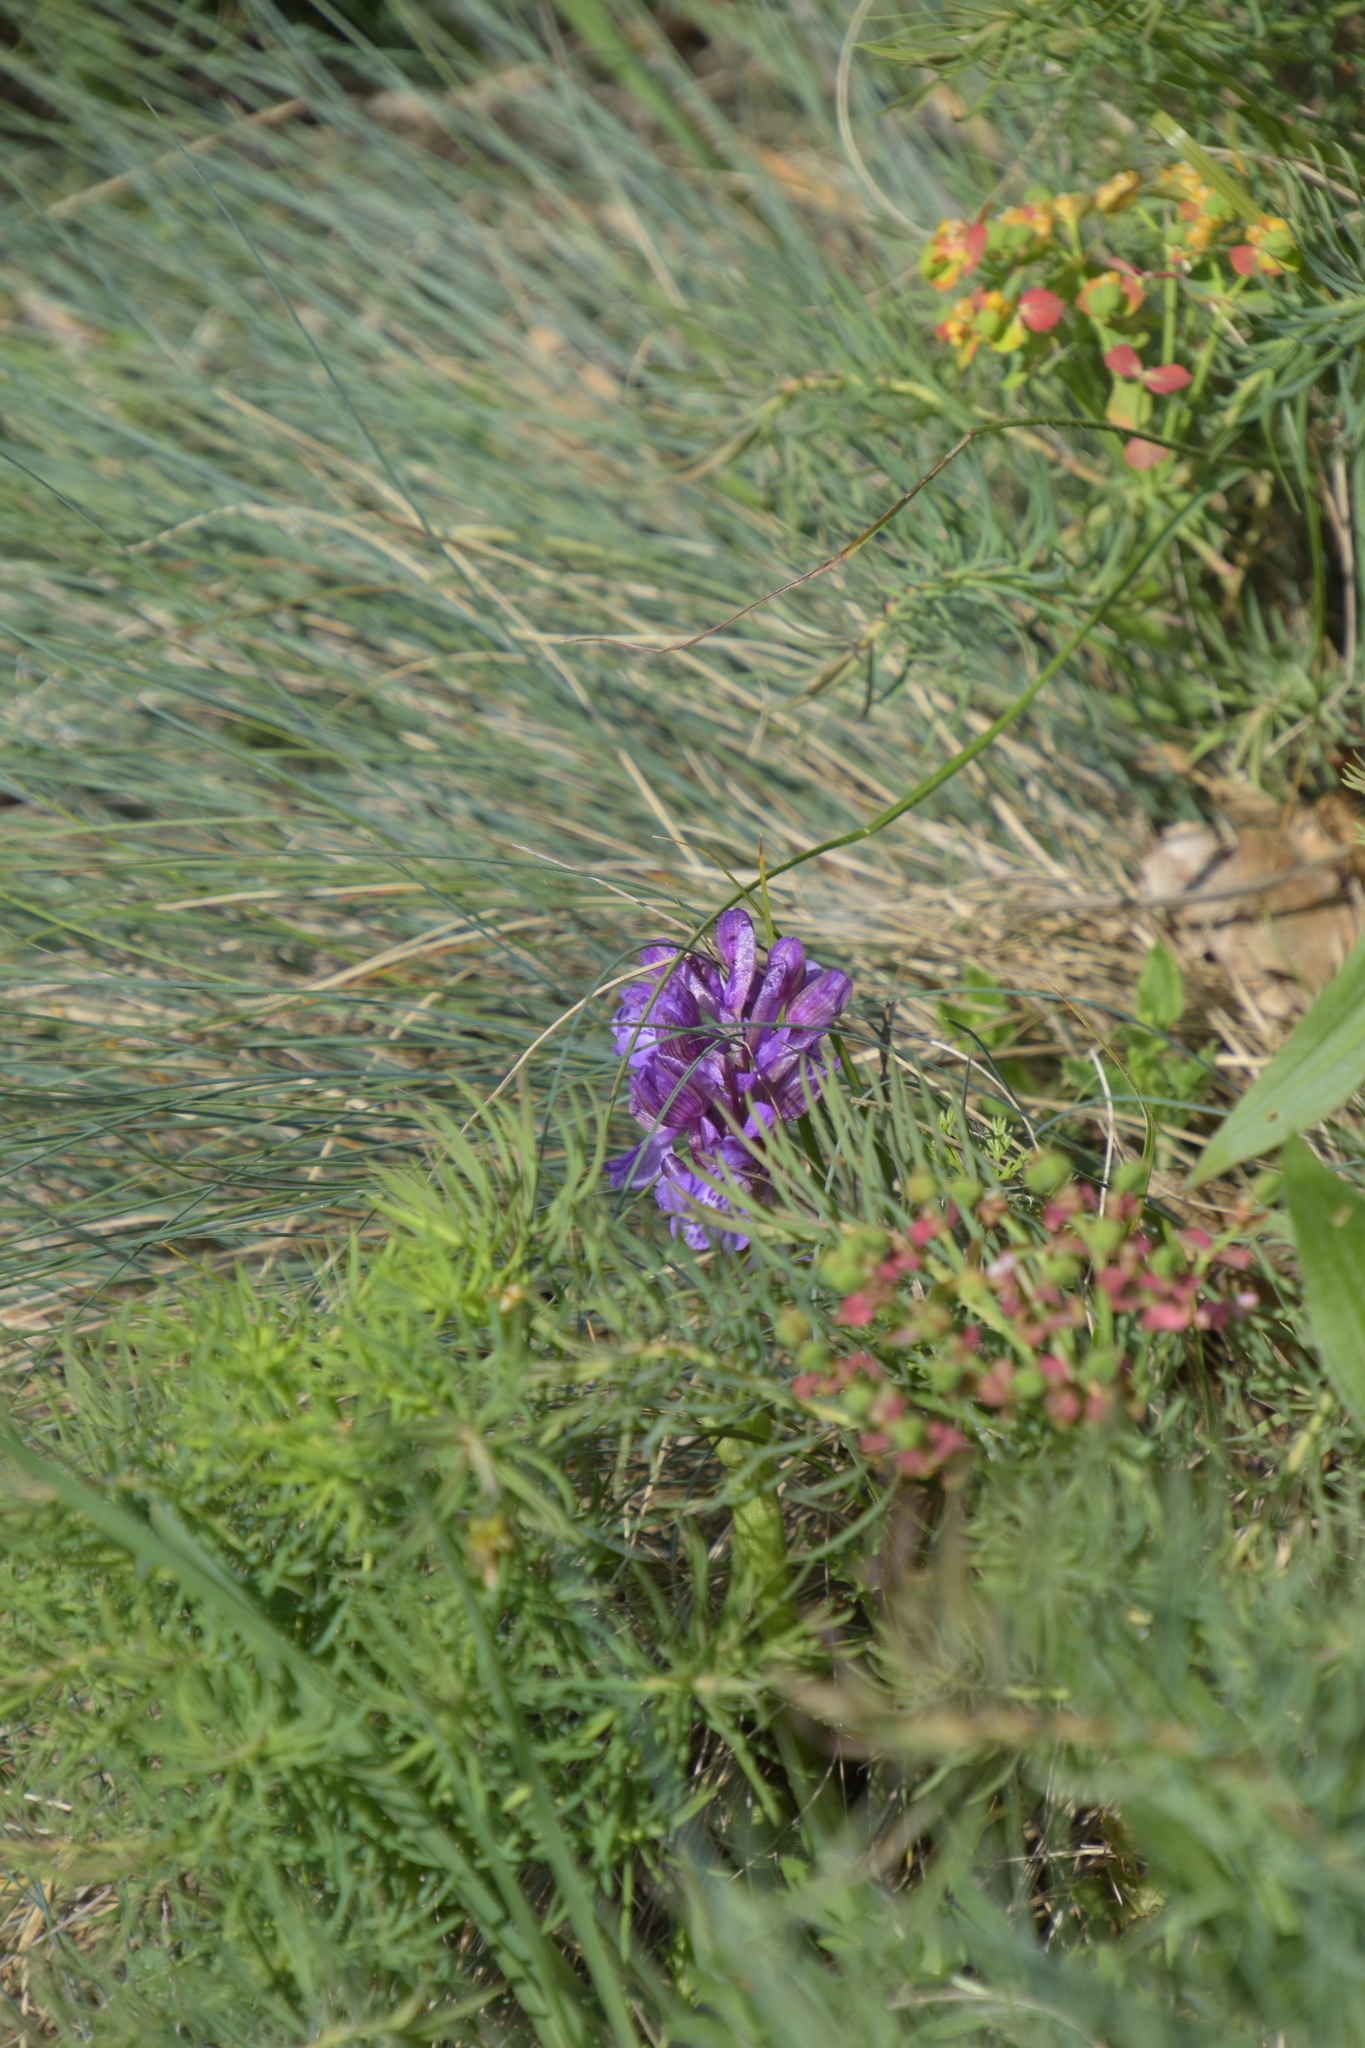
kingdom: Plantae
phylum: Tracheophyta
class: Liliopsida
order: Asparagales
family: Orchidaceae
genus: Anacamptis
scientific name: Anacamptis morio
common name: Green-winged orchid
